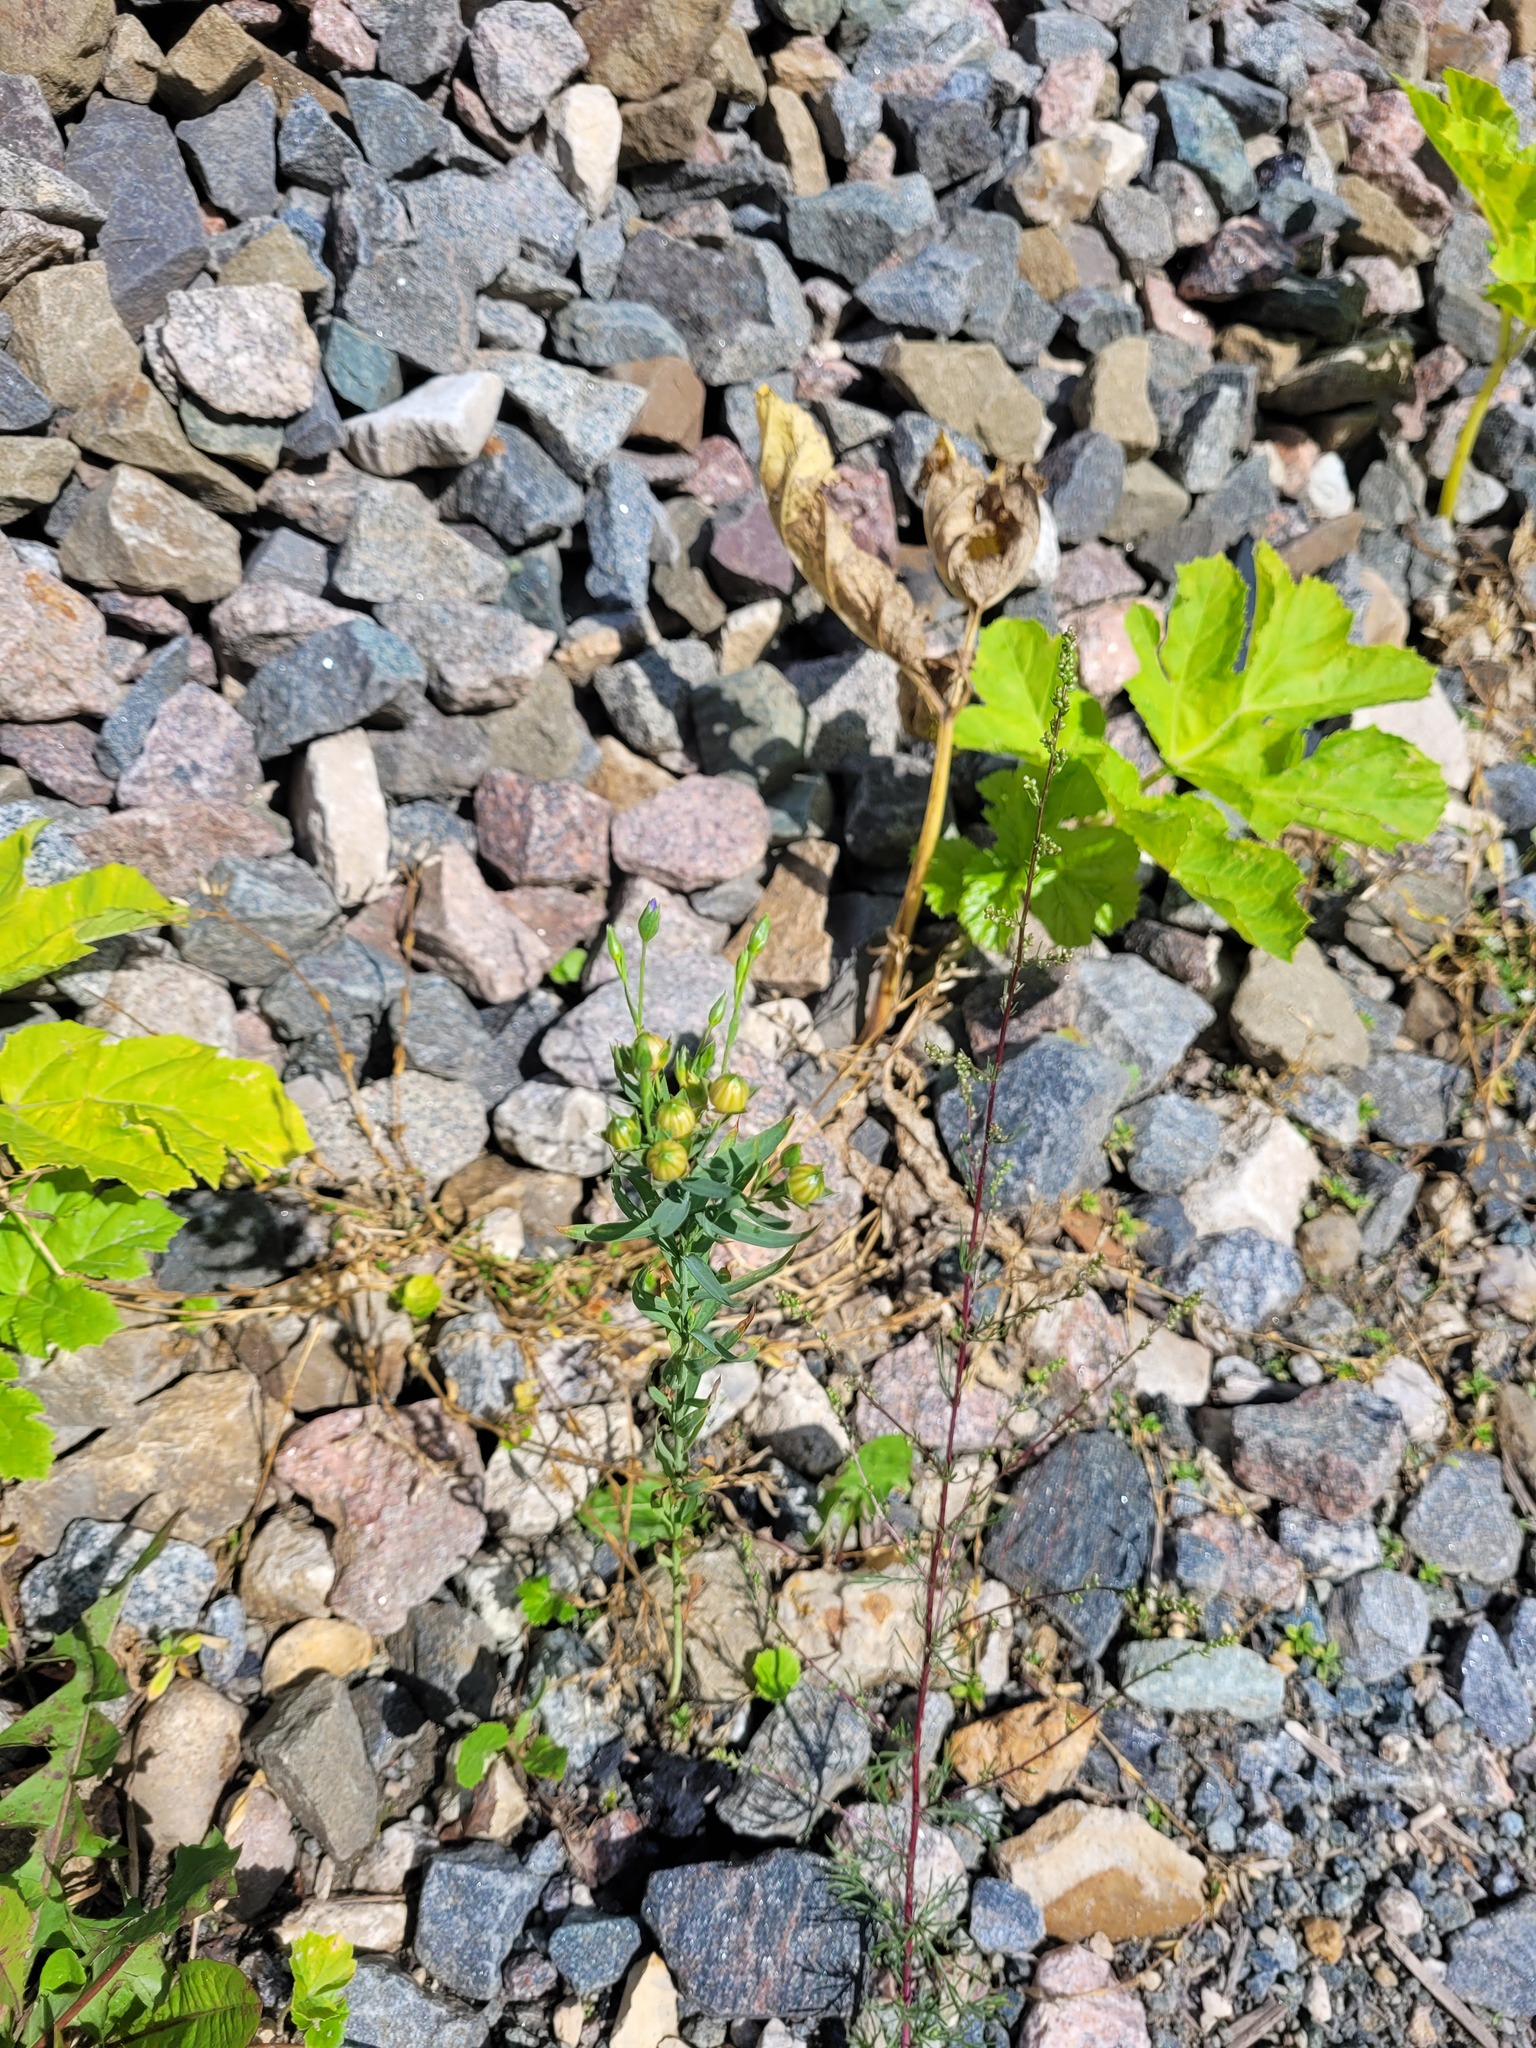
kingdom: Plantae
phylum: Tracheophyta
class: Magnoliopsida
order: Malpighiales
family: Linaceae
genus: Linum
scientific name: Linum usitatissimum
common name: Flax
